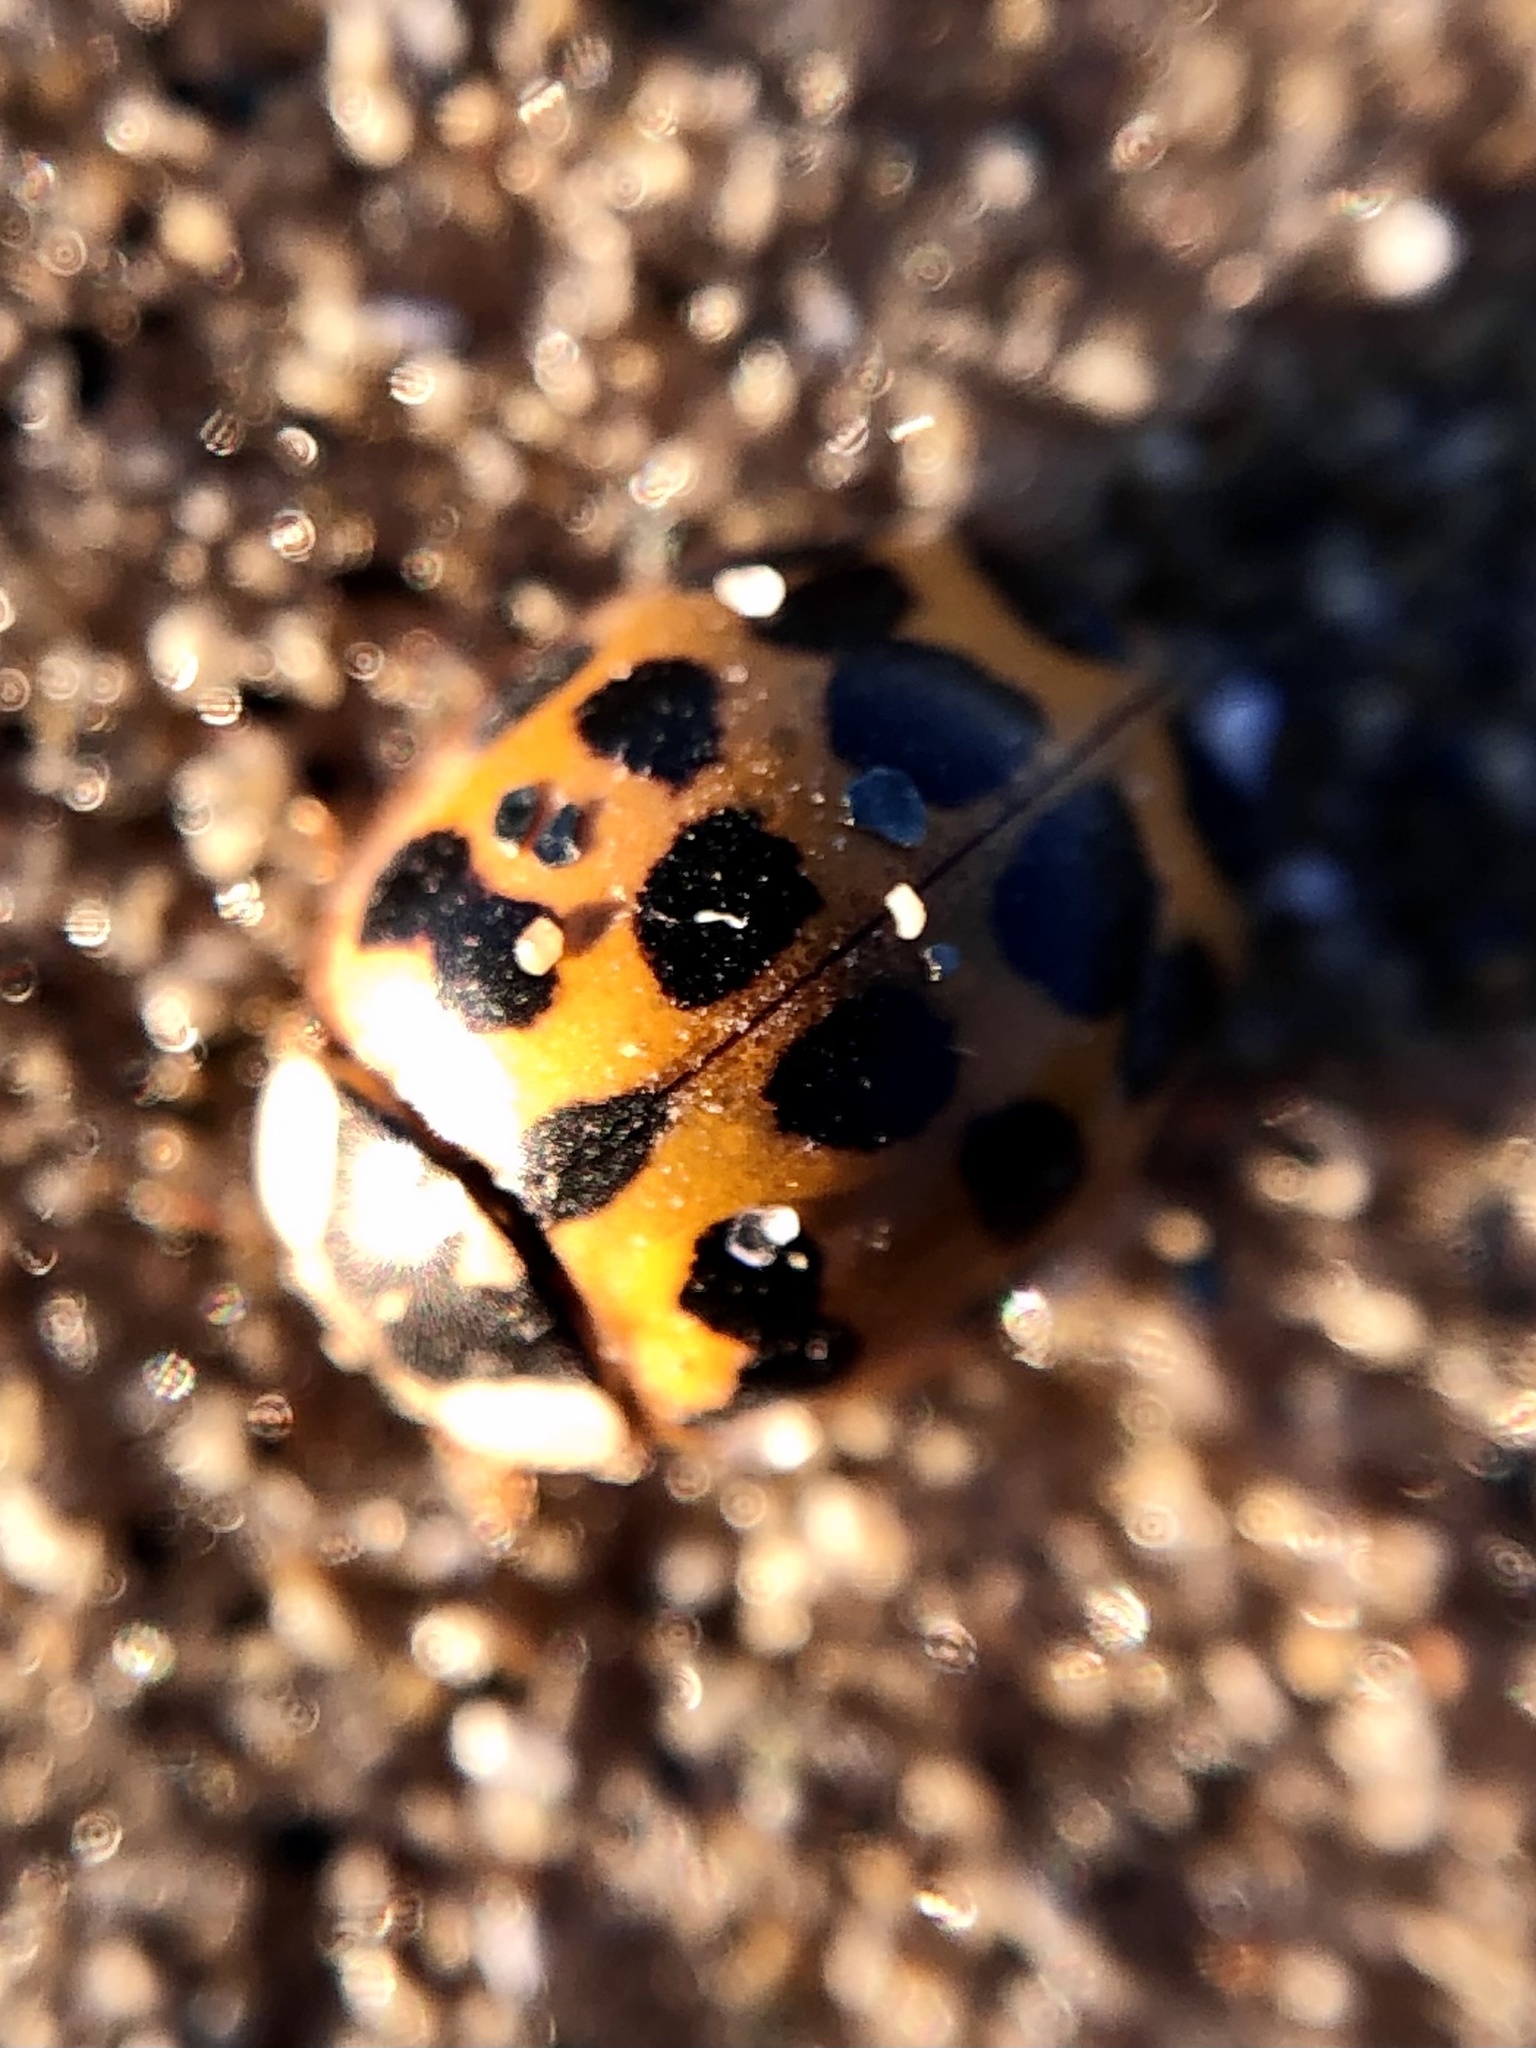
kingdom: Animalia
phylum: Arthropoda
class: Insecta
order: Coleoptera
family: Coccinellidae
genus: Harmonia
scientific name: Harmonia axyridis
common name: Harlequin ladybird
